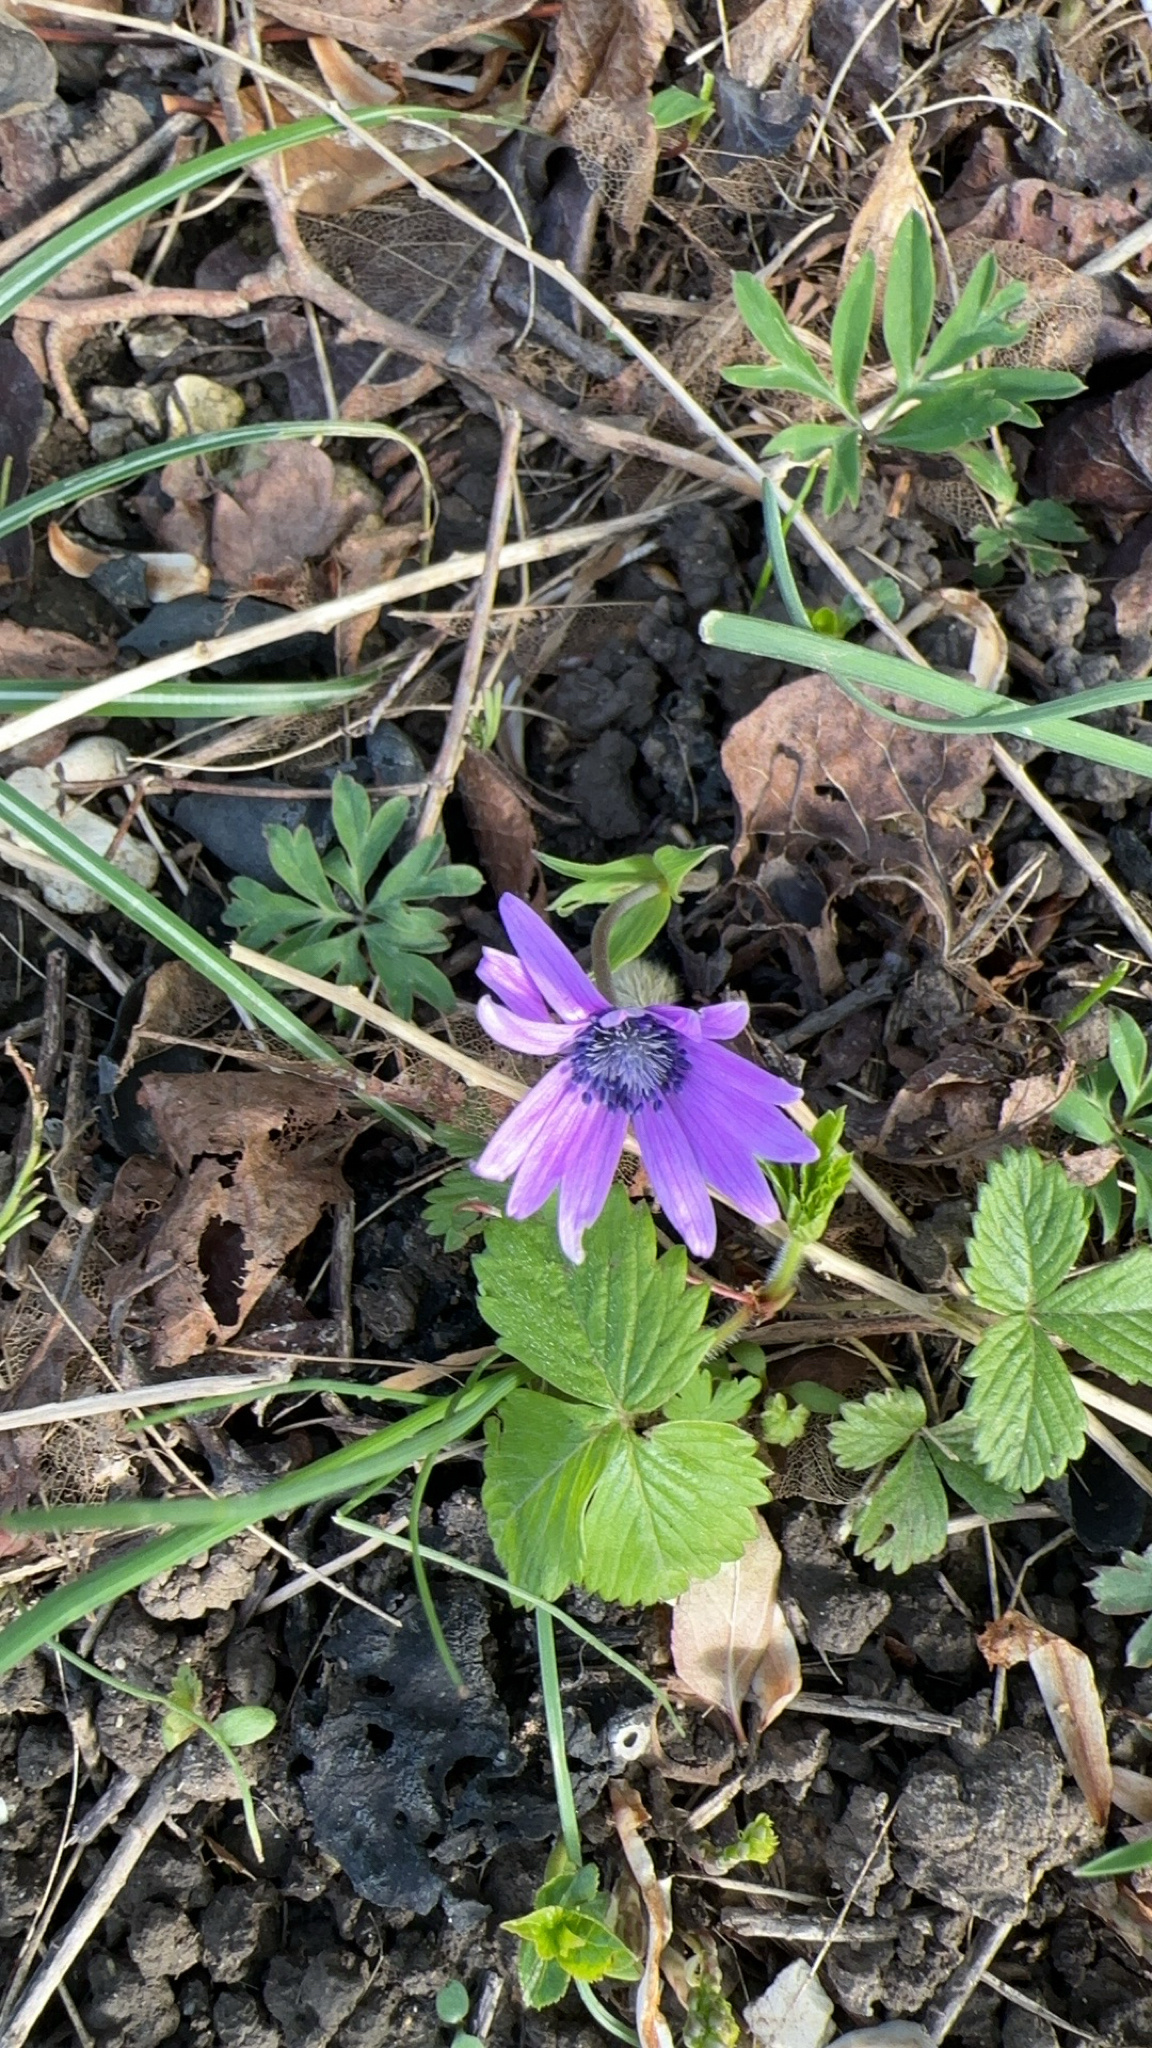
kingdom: Plantae
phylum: Tracheophyta
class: Magnoliopsida
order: Ranunculales
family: Ranunculaceae
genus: Anemone
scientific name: Anemone hortensis
